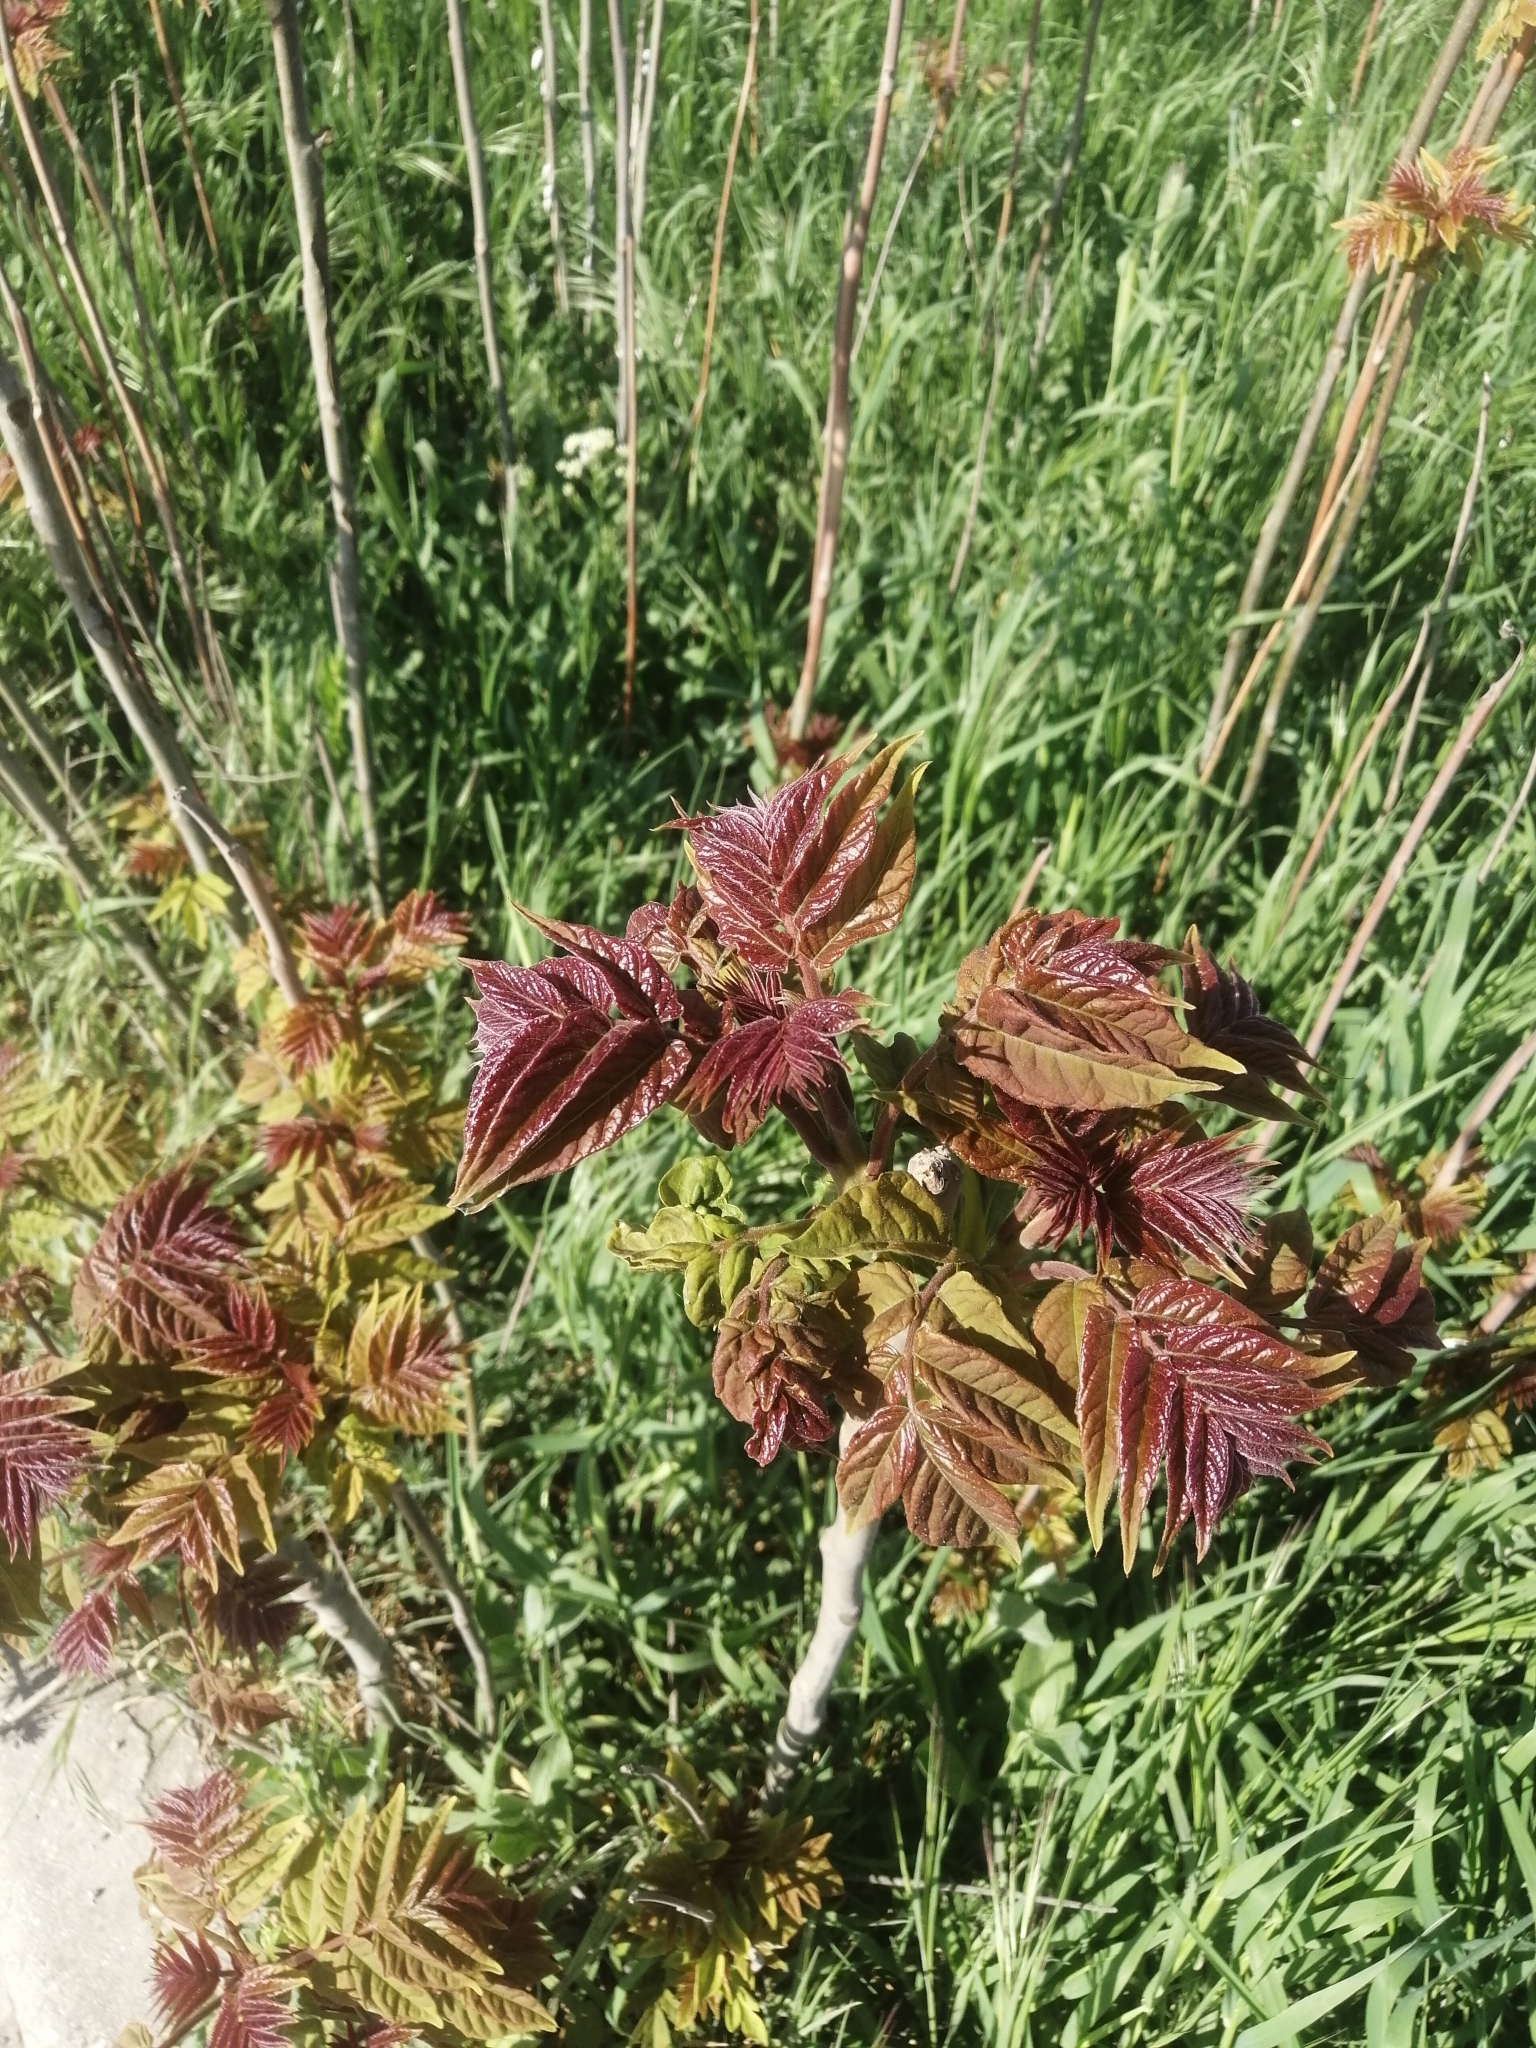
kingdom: Plantae
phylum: Tracheophyta
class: Magnoliopsida
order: Sapindales
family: Simaroubaceae
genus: Ailanthus
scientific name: Ailanthus altissima
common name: Tree-of-heaven
